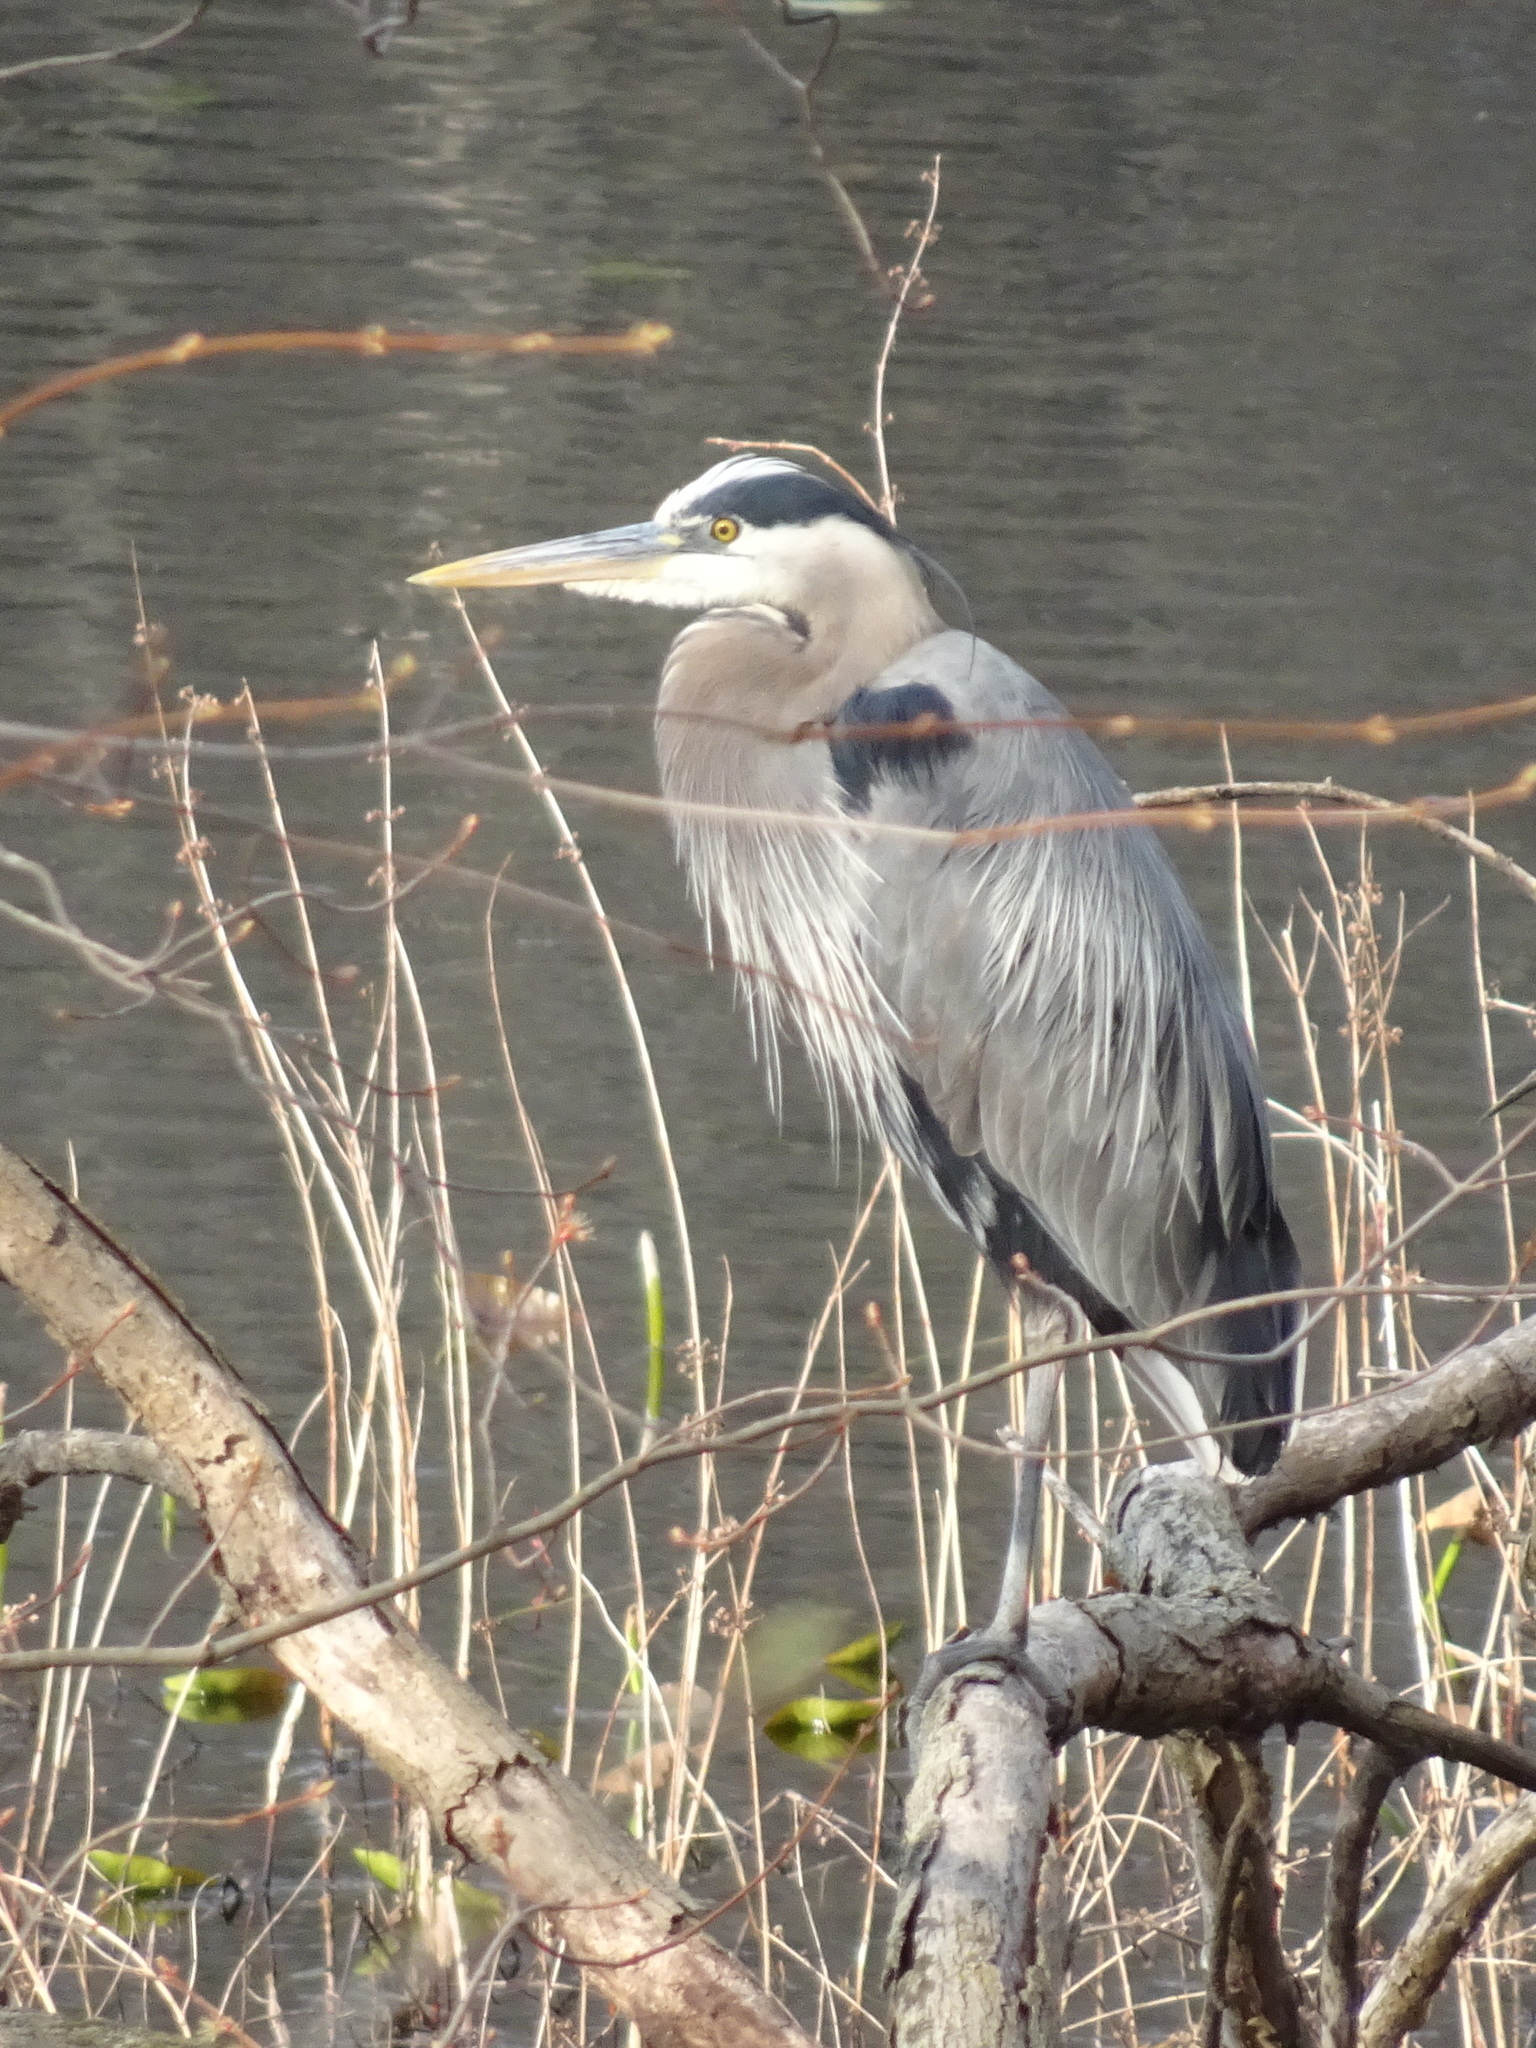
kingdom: Animalia
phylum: Chordata
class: Aves
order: Pelecaniformes
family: Ardeidae
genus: Ardea
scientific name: Ardea herodias
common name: Great blue heron
